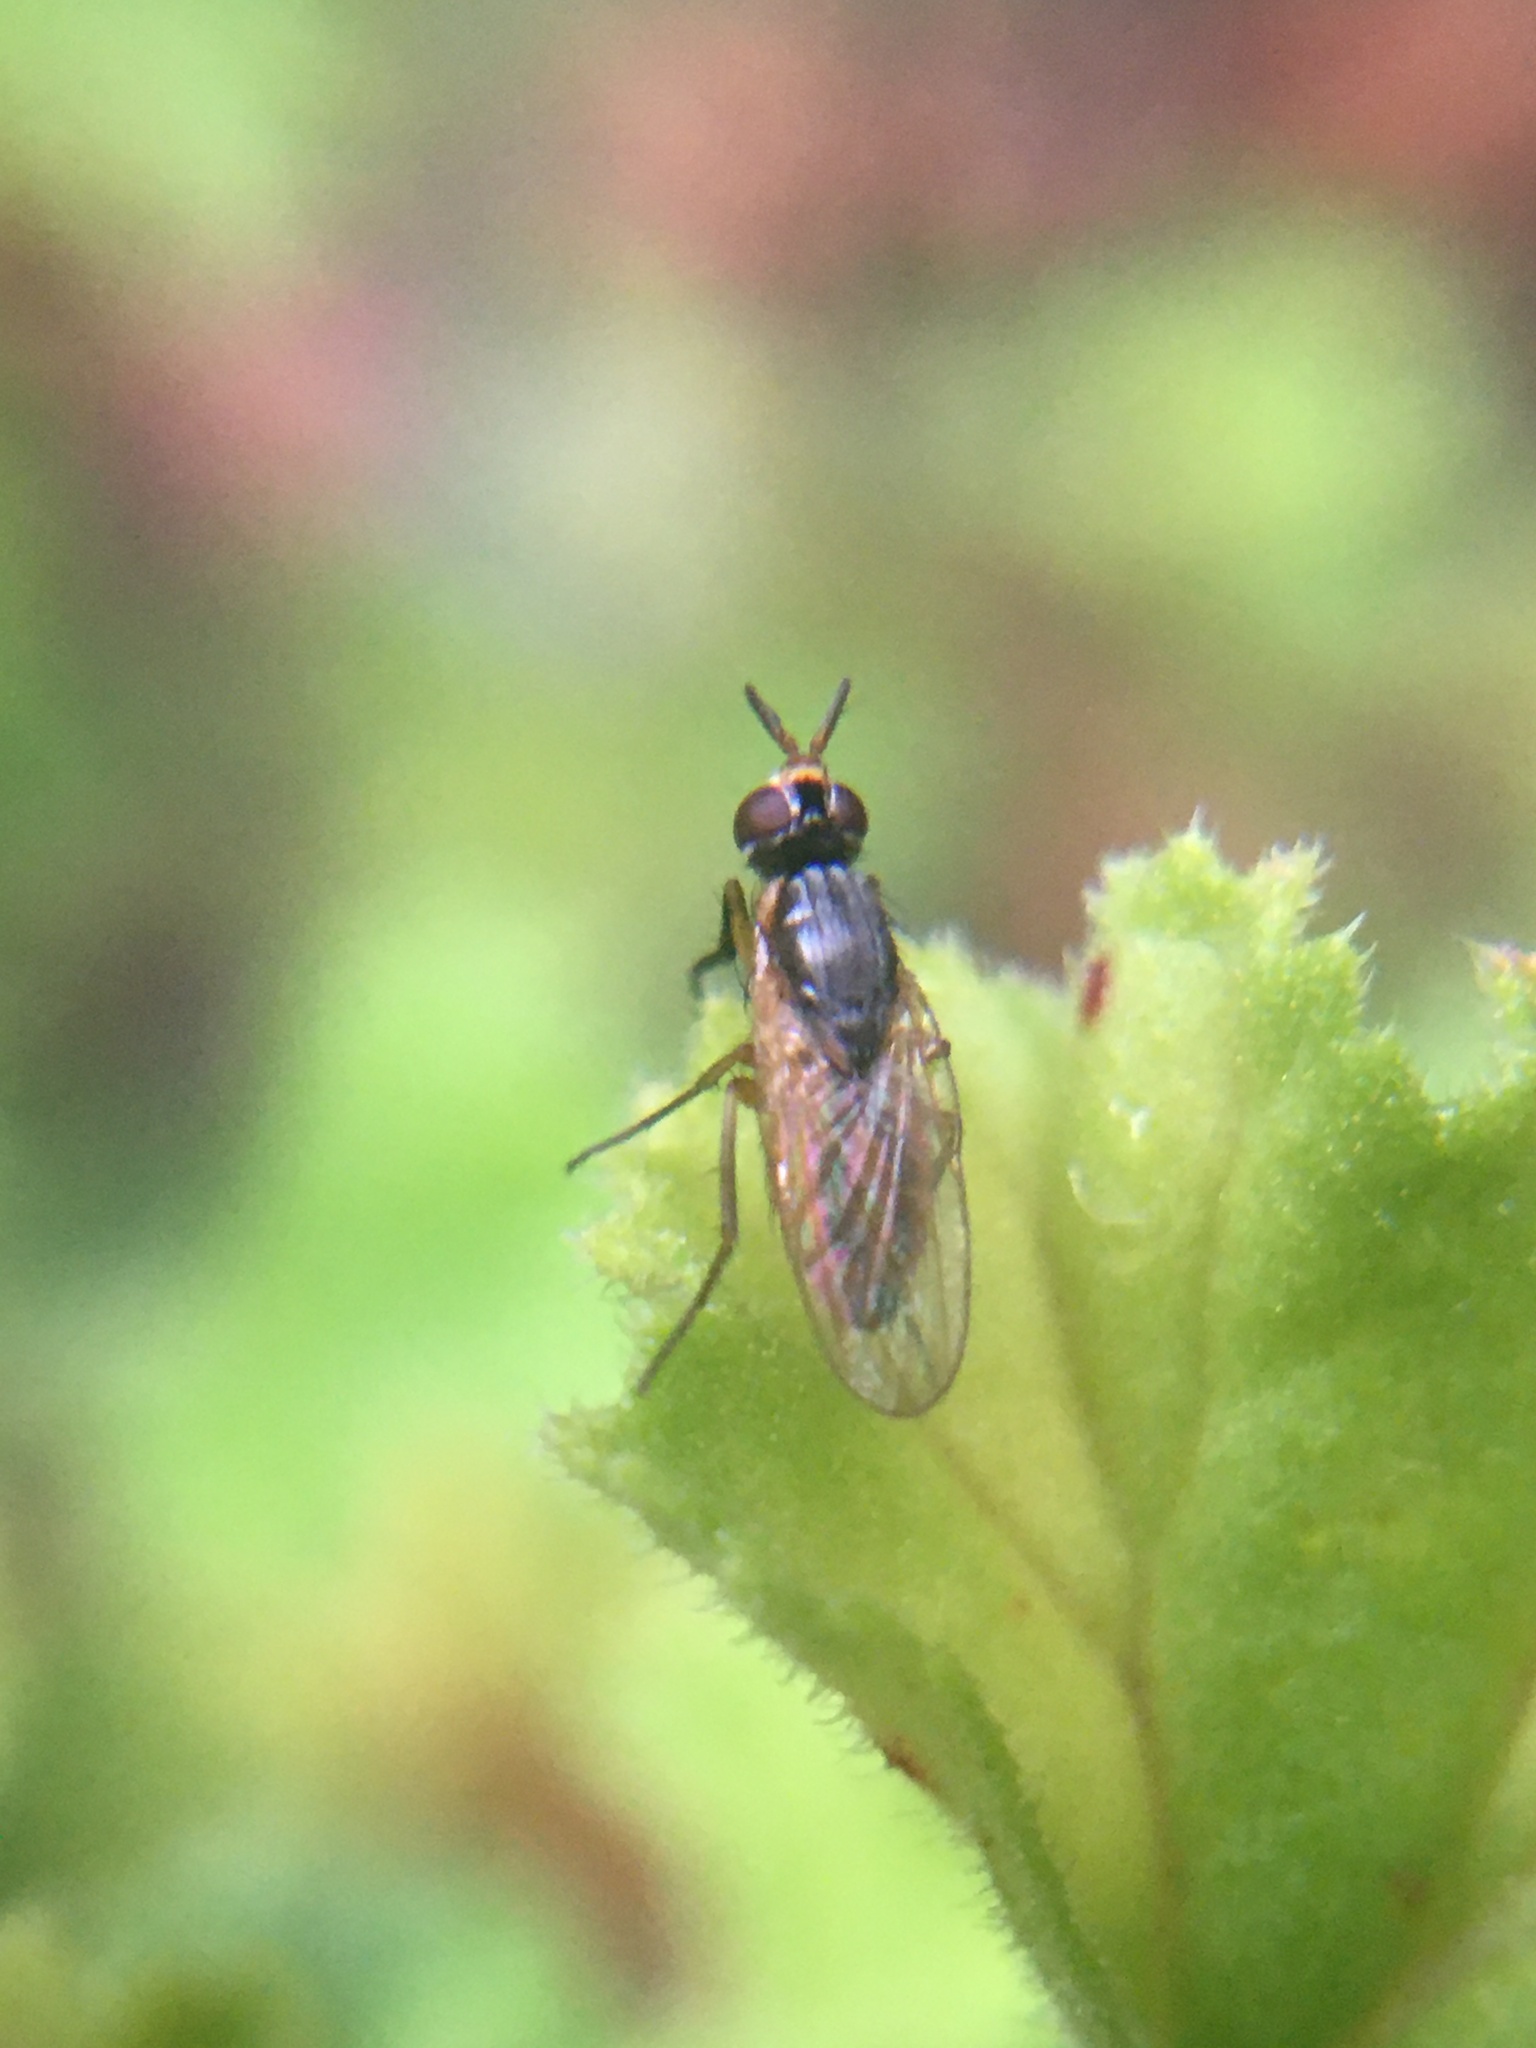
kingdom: Animalia
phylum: Arthropoda
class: Insecta
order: Diptera
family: Muscidae
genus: Anaphalantus
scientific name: Anaphalantus longicornis
